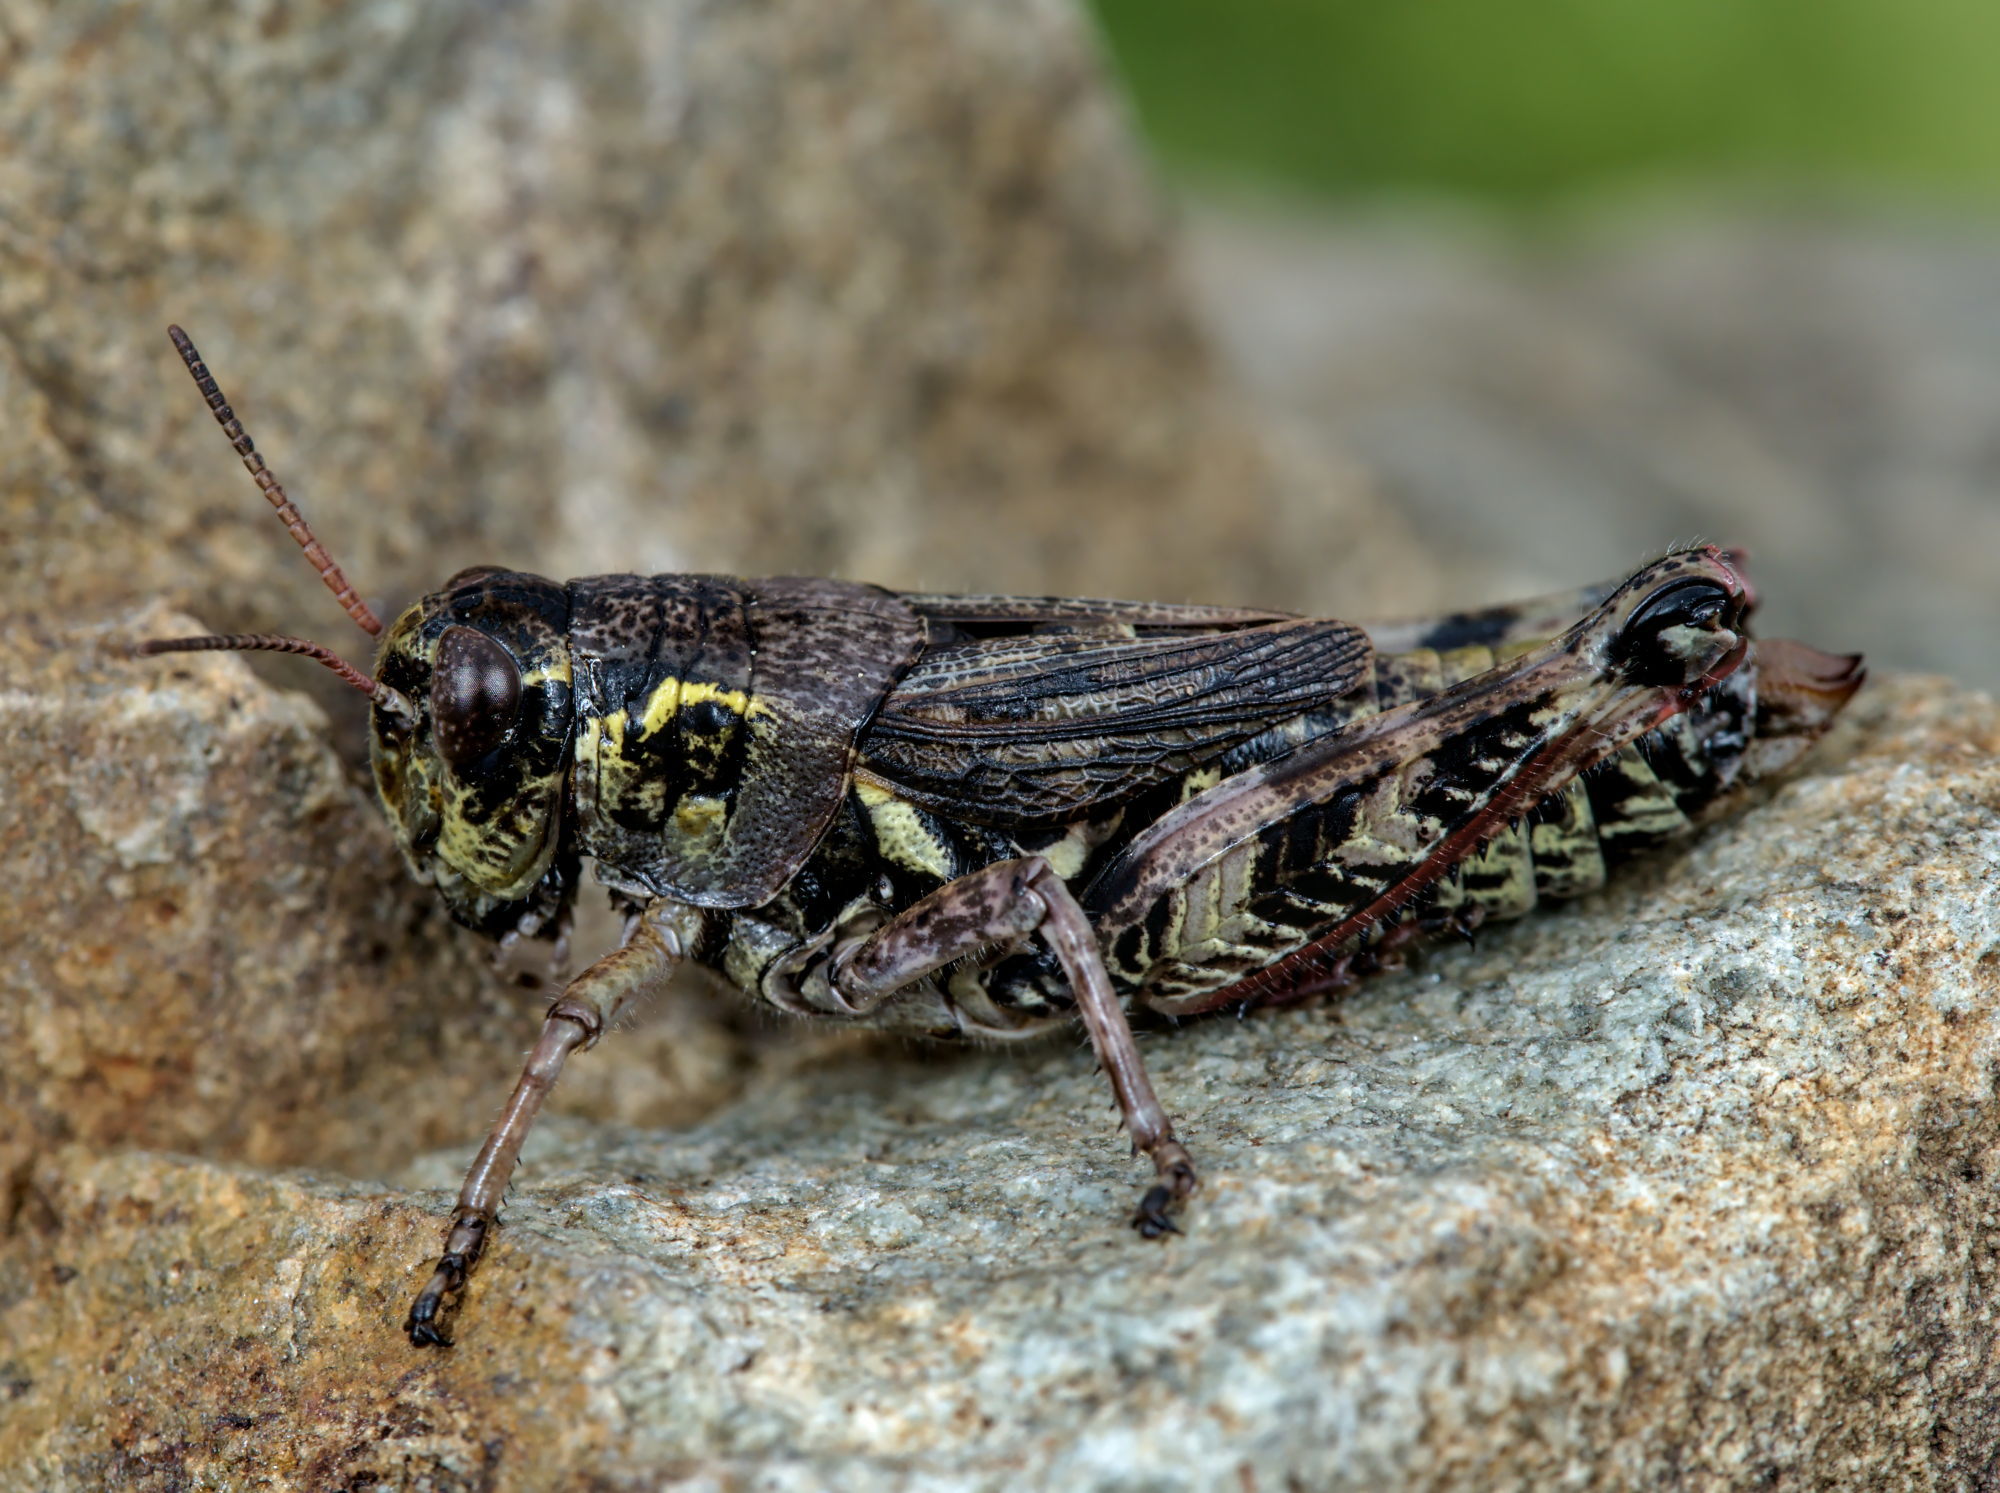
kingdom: Animalia
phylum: Arthropoda
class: Insecta
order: Orthoptera
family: Acrididae
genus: Bohemanella
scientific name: Bohemanella frigida
